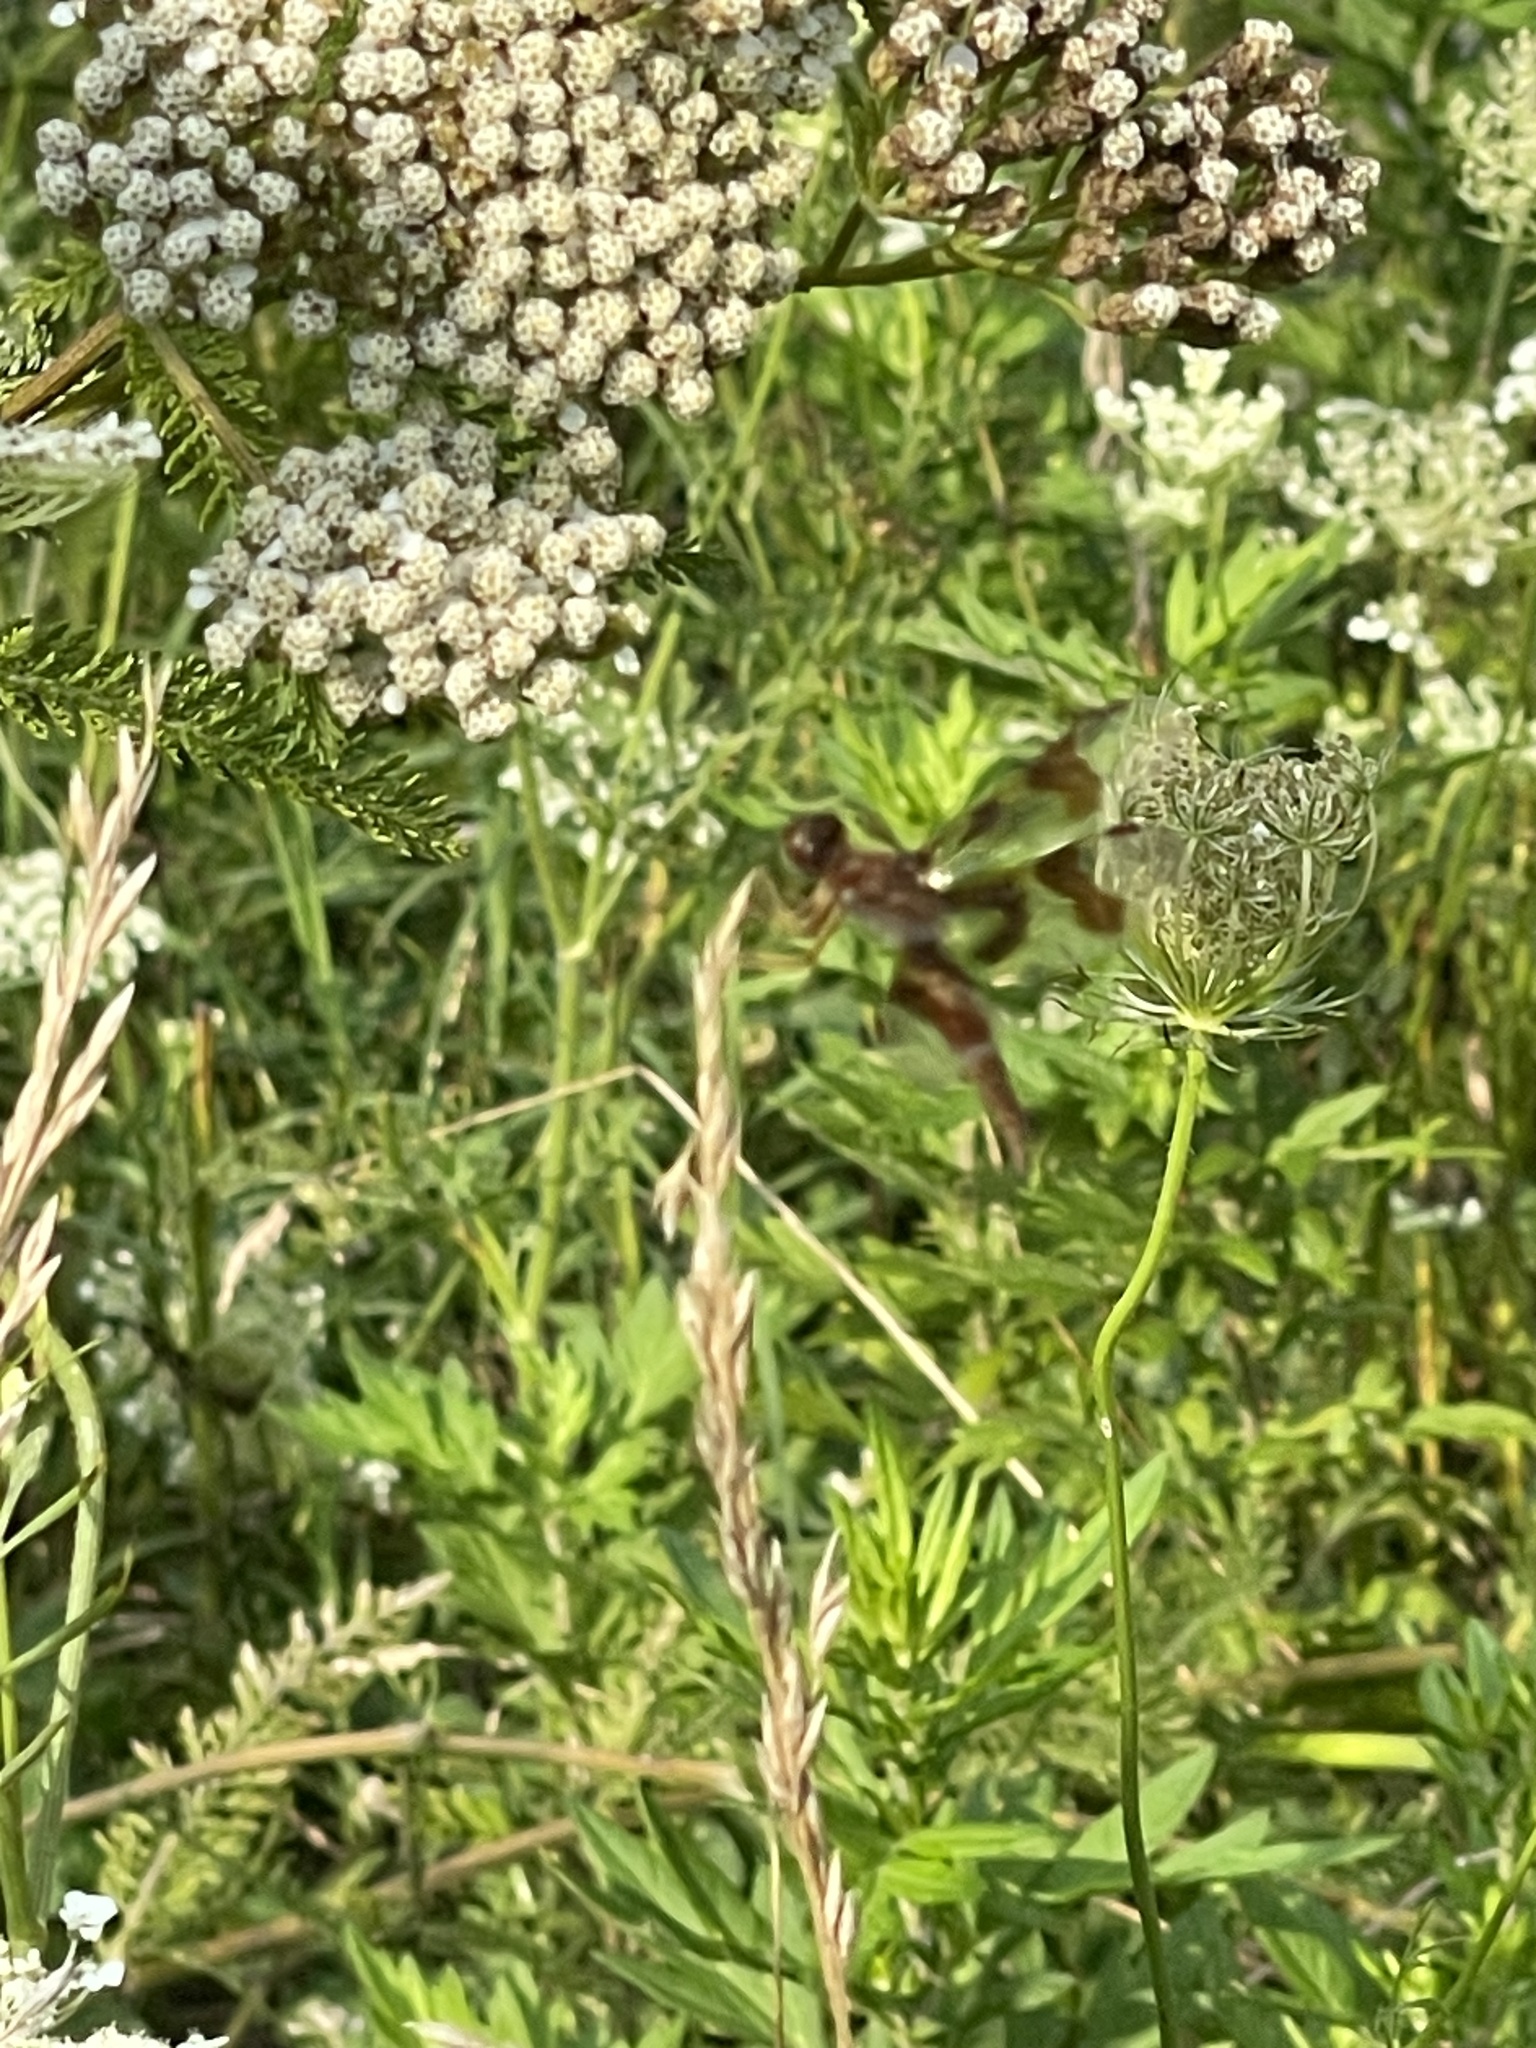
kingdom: Animalia
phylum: Arthropoda
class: Insecta
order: Odonata
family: Libellulidae
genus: Perithemis
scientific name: Perithemis tenera
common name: Eastern amberwing
